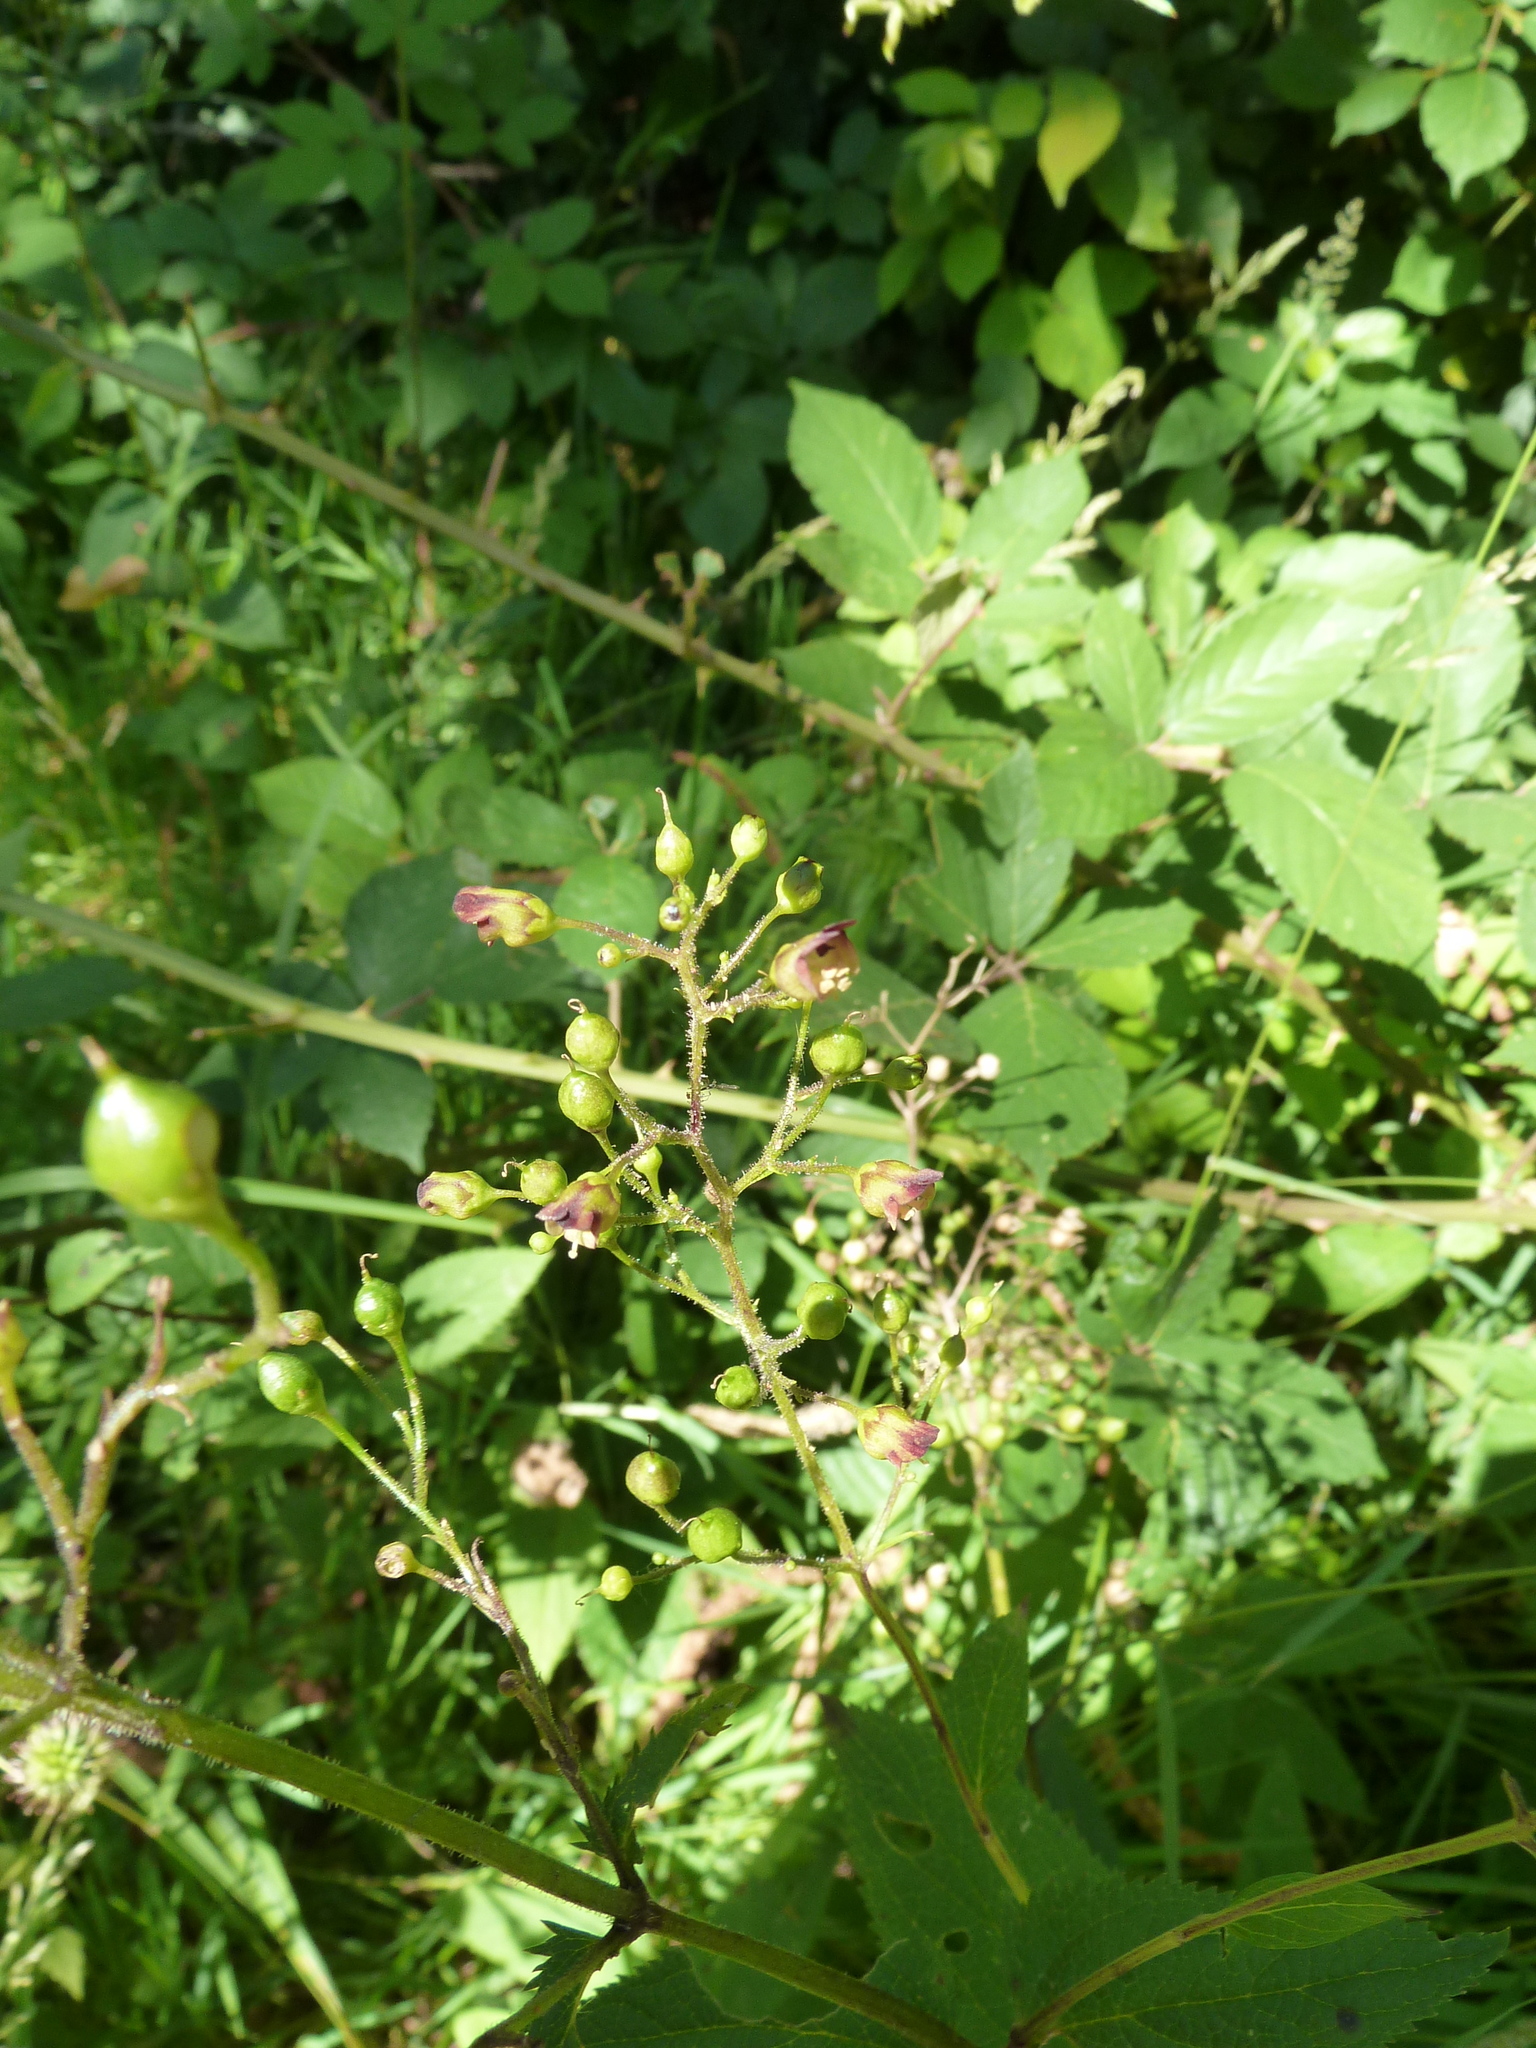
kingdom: Plantae
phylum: Tracheophyta
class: Magnoliopsida
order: Lamiales
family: Scrophulariaceae
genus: Scrophularia
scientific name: Scrophularia nodosa
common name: Common figwort
